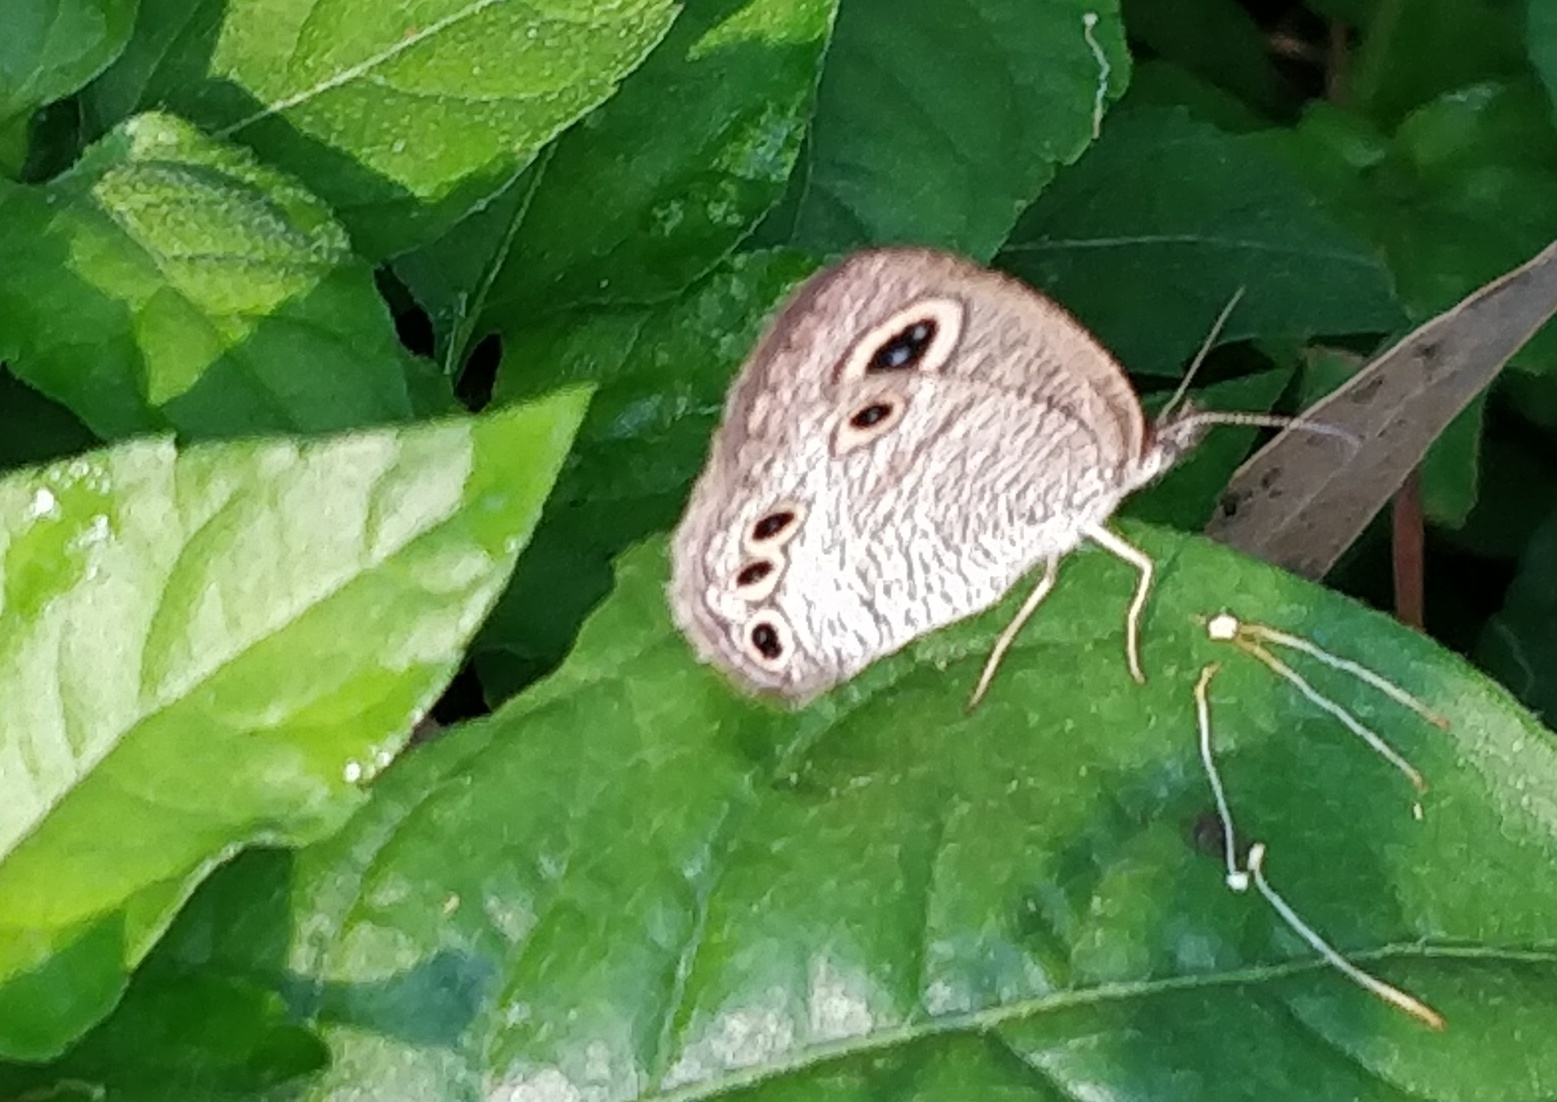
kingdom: Animalia
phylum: Arthropoda
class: Insecta
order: Lepidoptera
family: Nymphalidae
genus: Ypthima
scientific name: Ypthima huebneri
